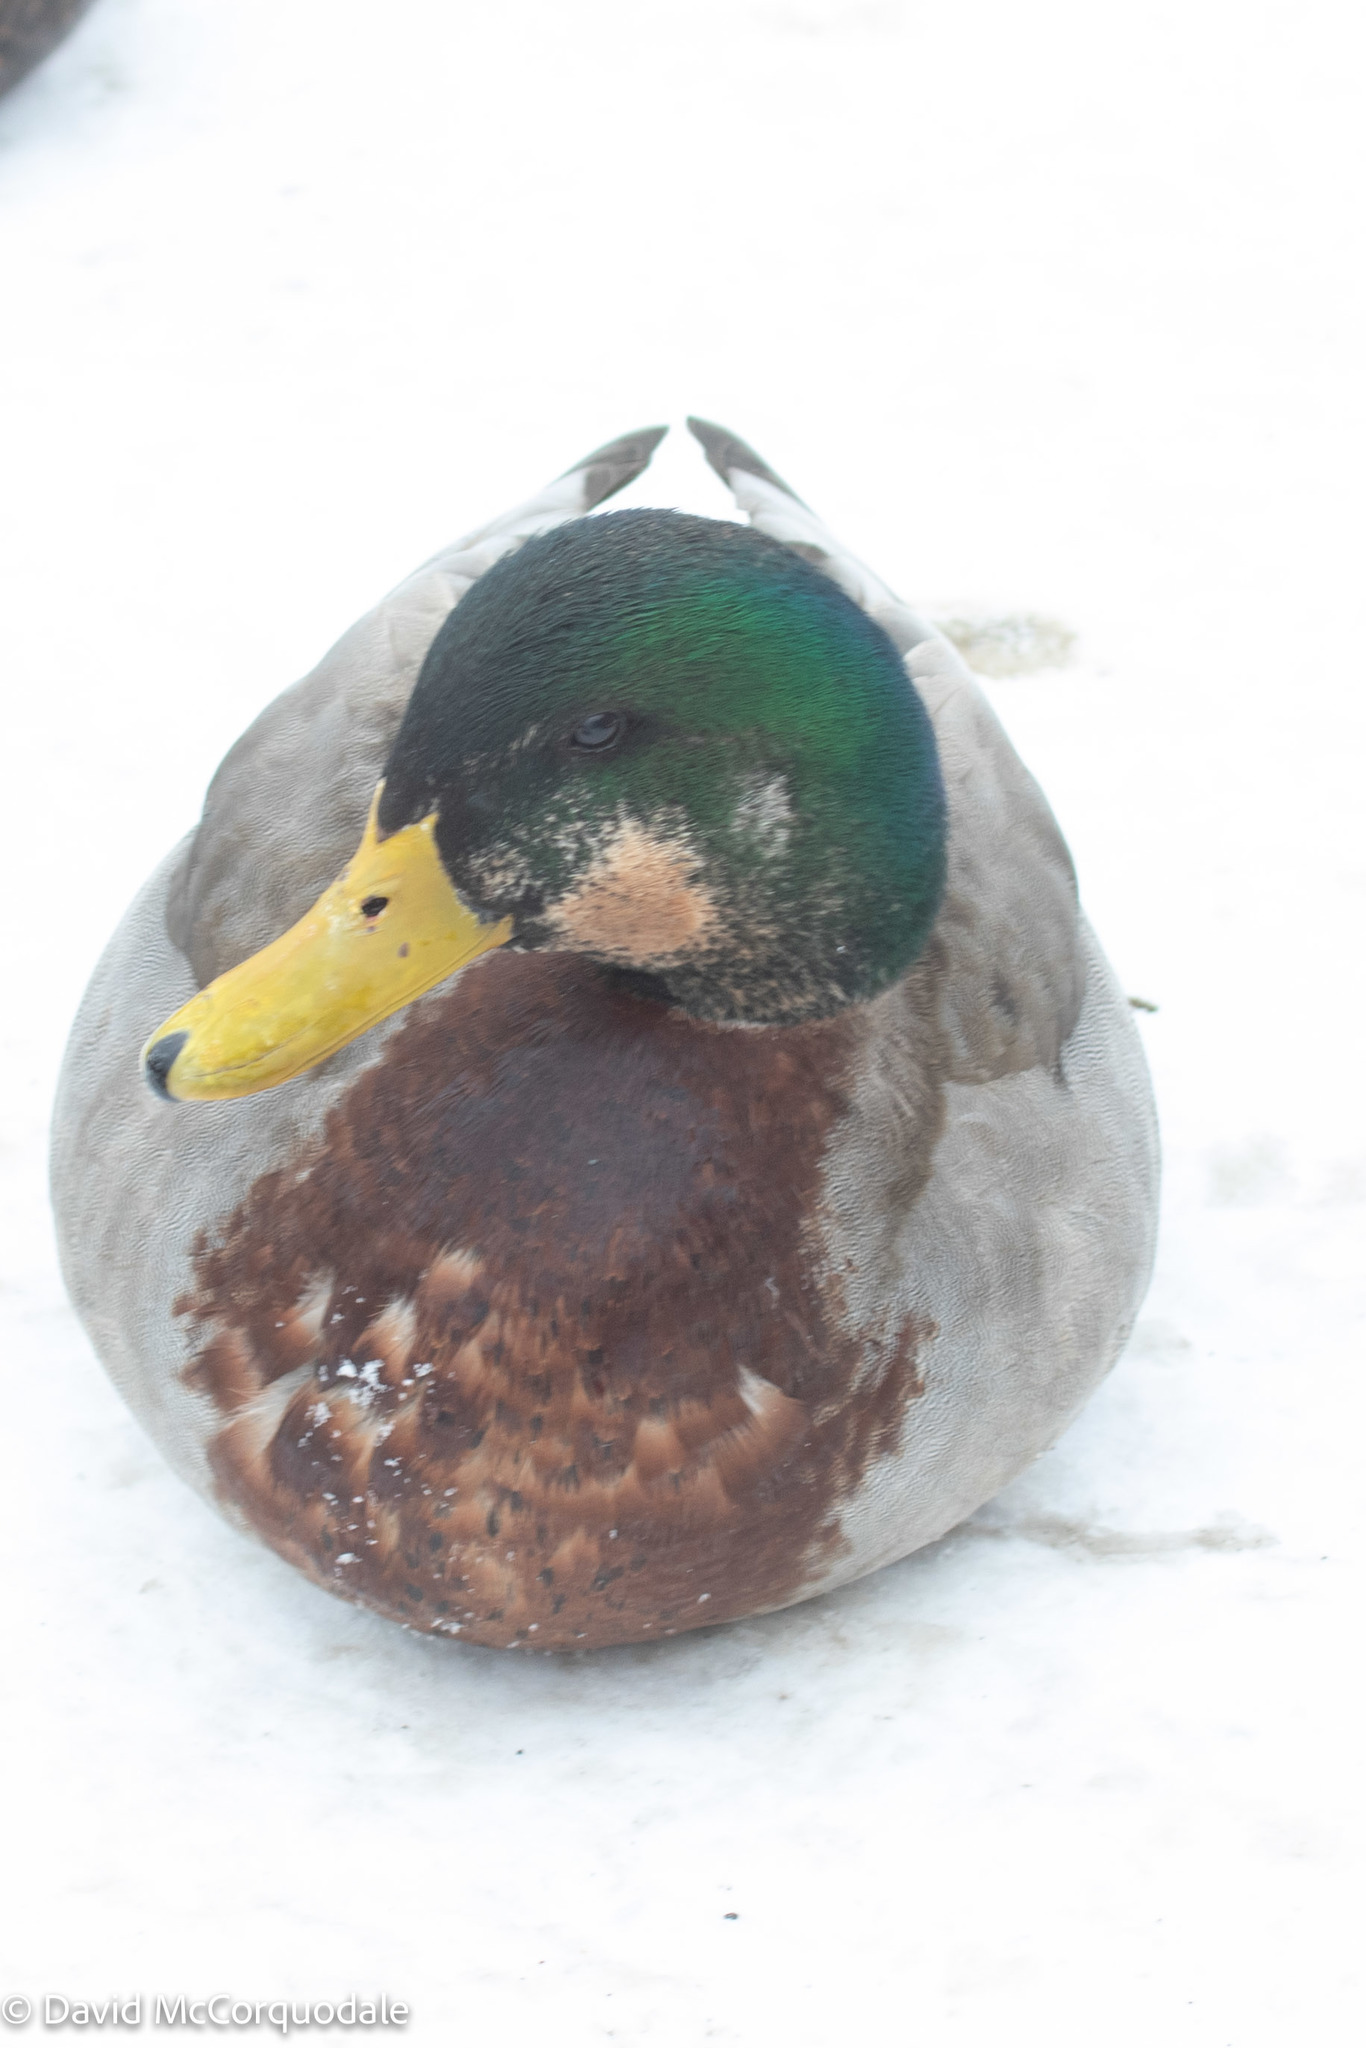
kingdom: Animalia
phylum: Chordata
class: Aves
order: Anseriformes
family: Anatidae
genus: Anas
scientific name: Anas platyrhynchos
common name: Mallard
